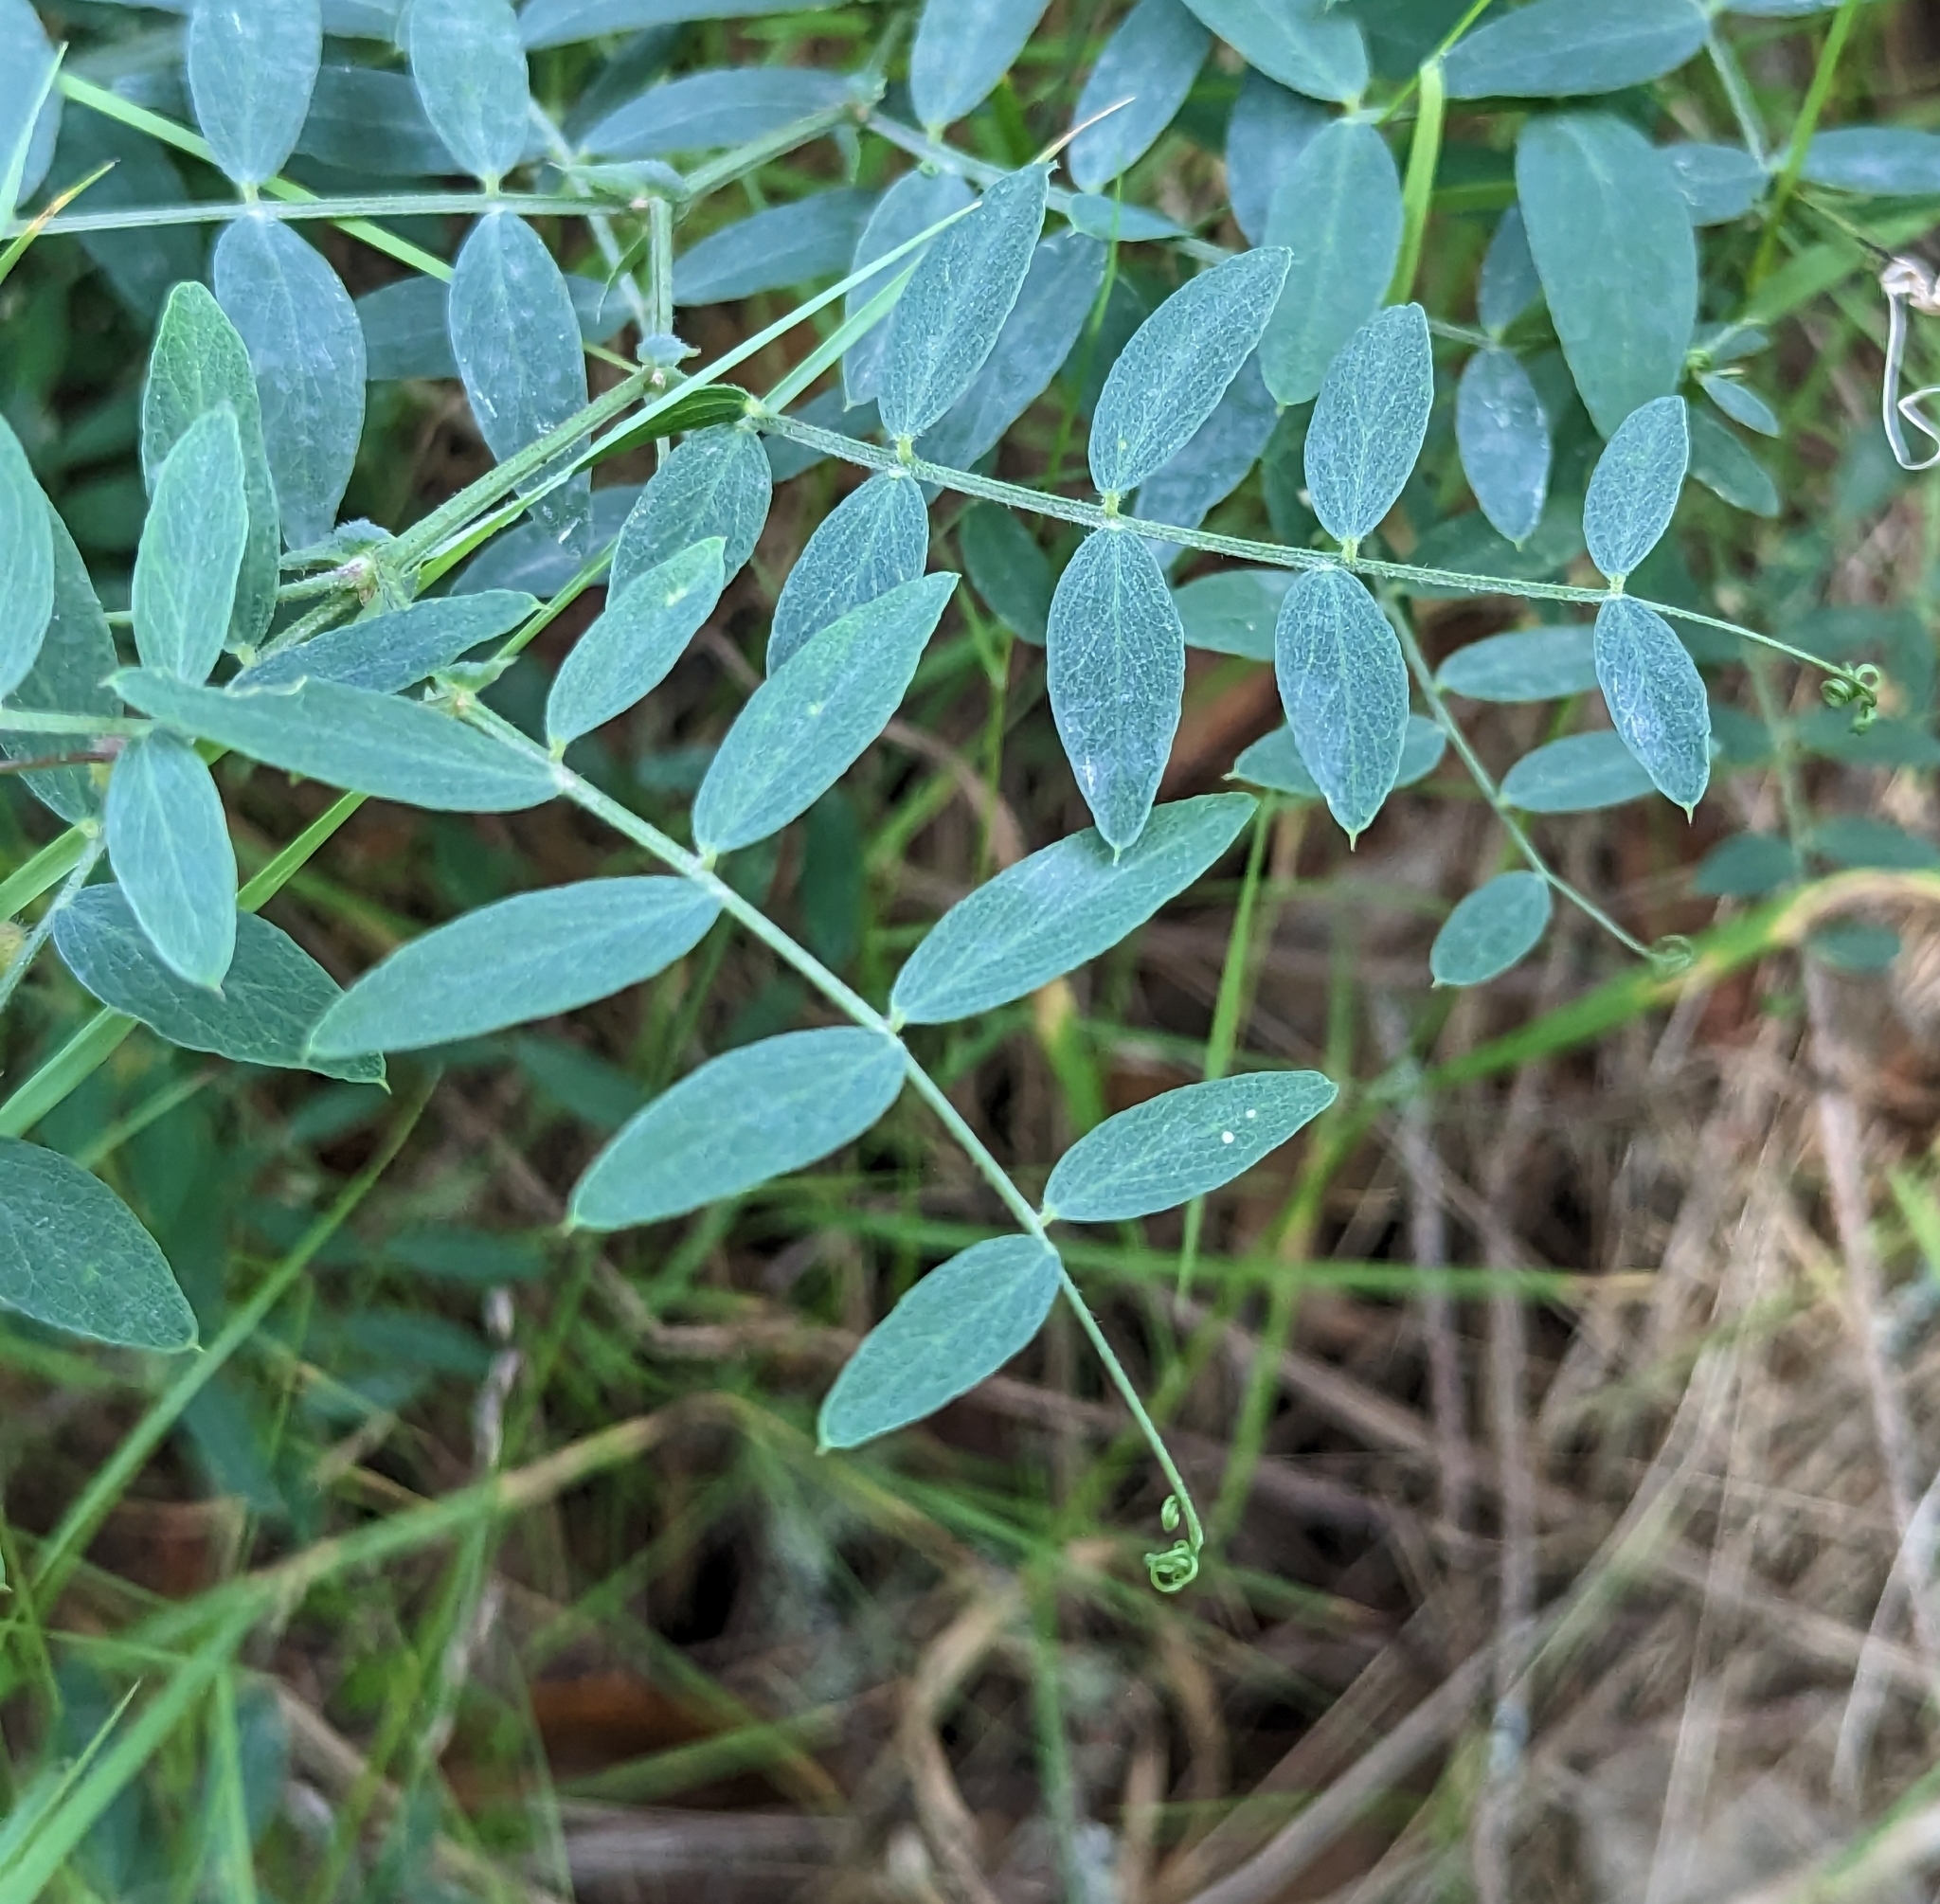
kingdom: Plantae
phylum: Tracheophyta
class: Magnoliopsida
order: Fabales
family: Fabaceae
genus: Lathyrus
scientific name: Lathyrus vestitus
